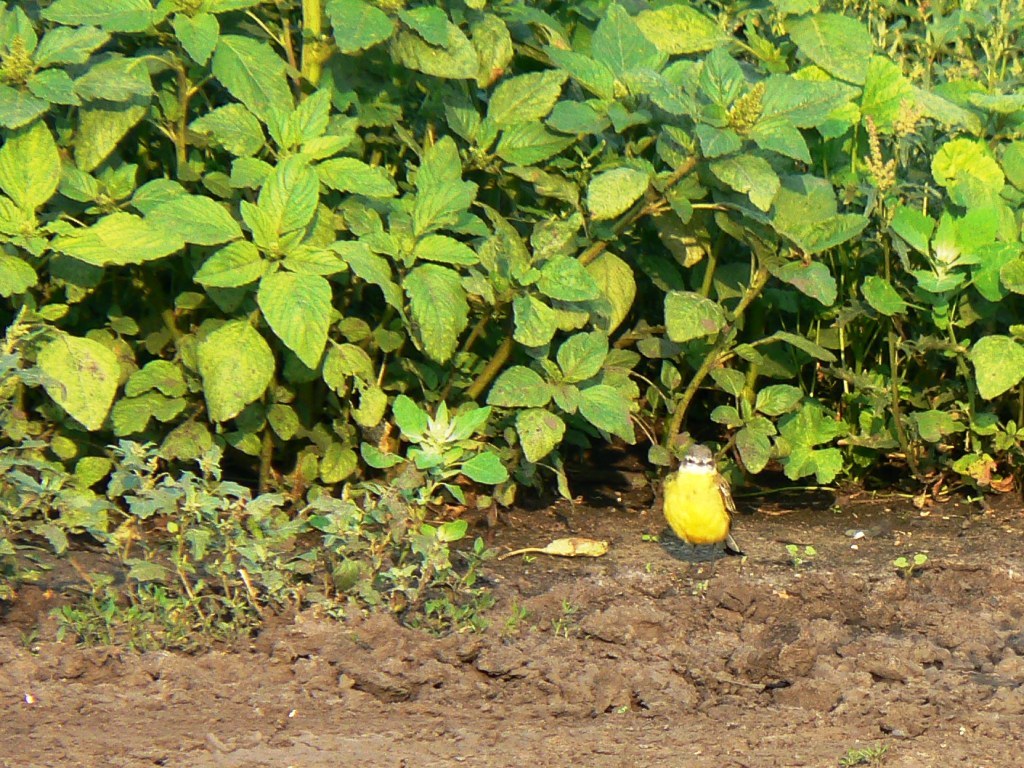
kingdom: Animalia
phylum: Chordata
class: Aves
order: Passeriformes
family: Motacillidae
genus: Motacilla
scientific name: Motacilla flava
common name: Western yellow wagtail
